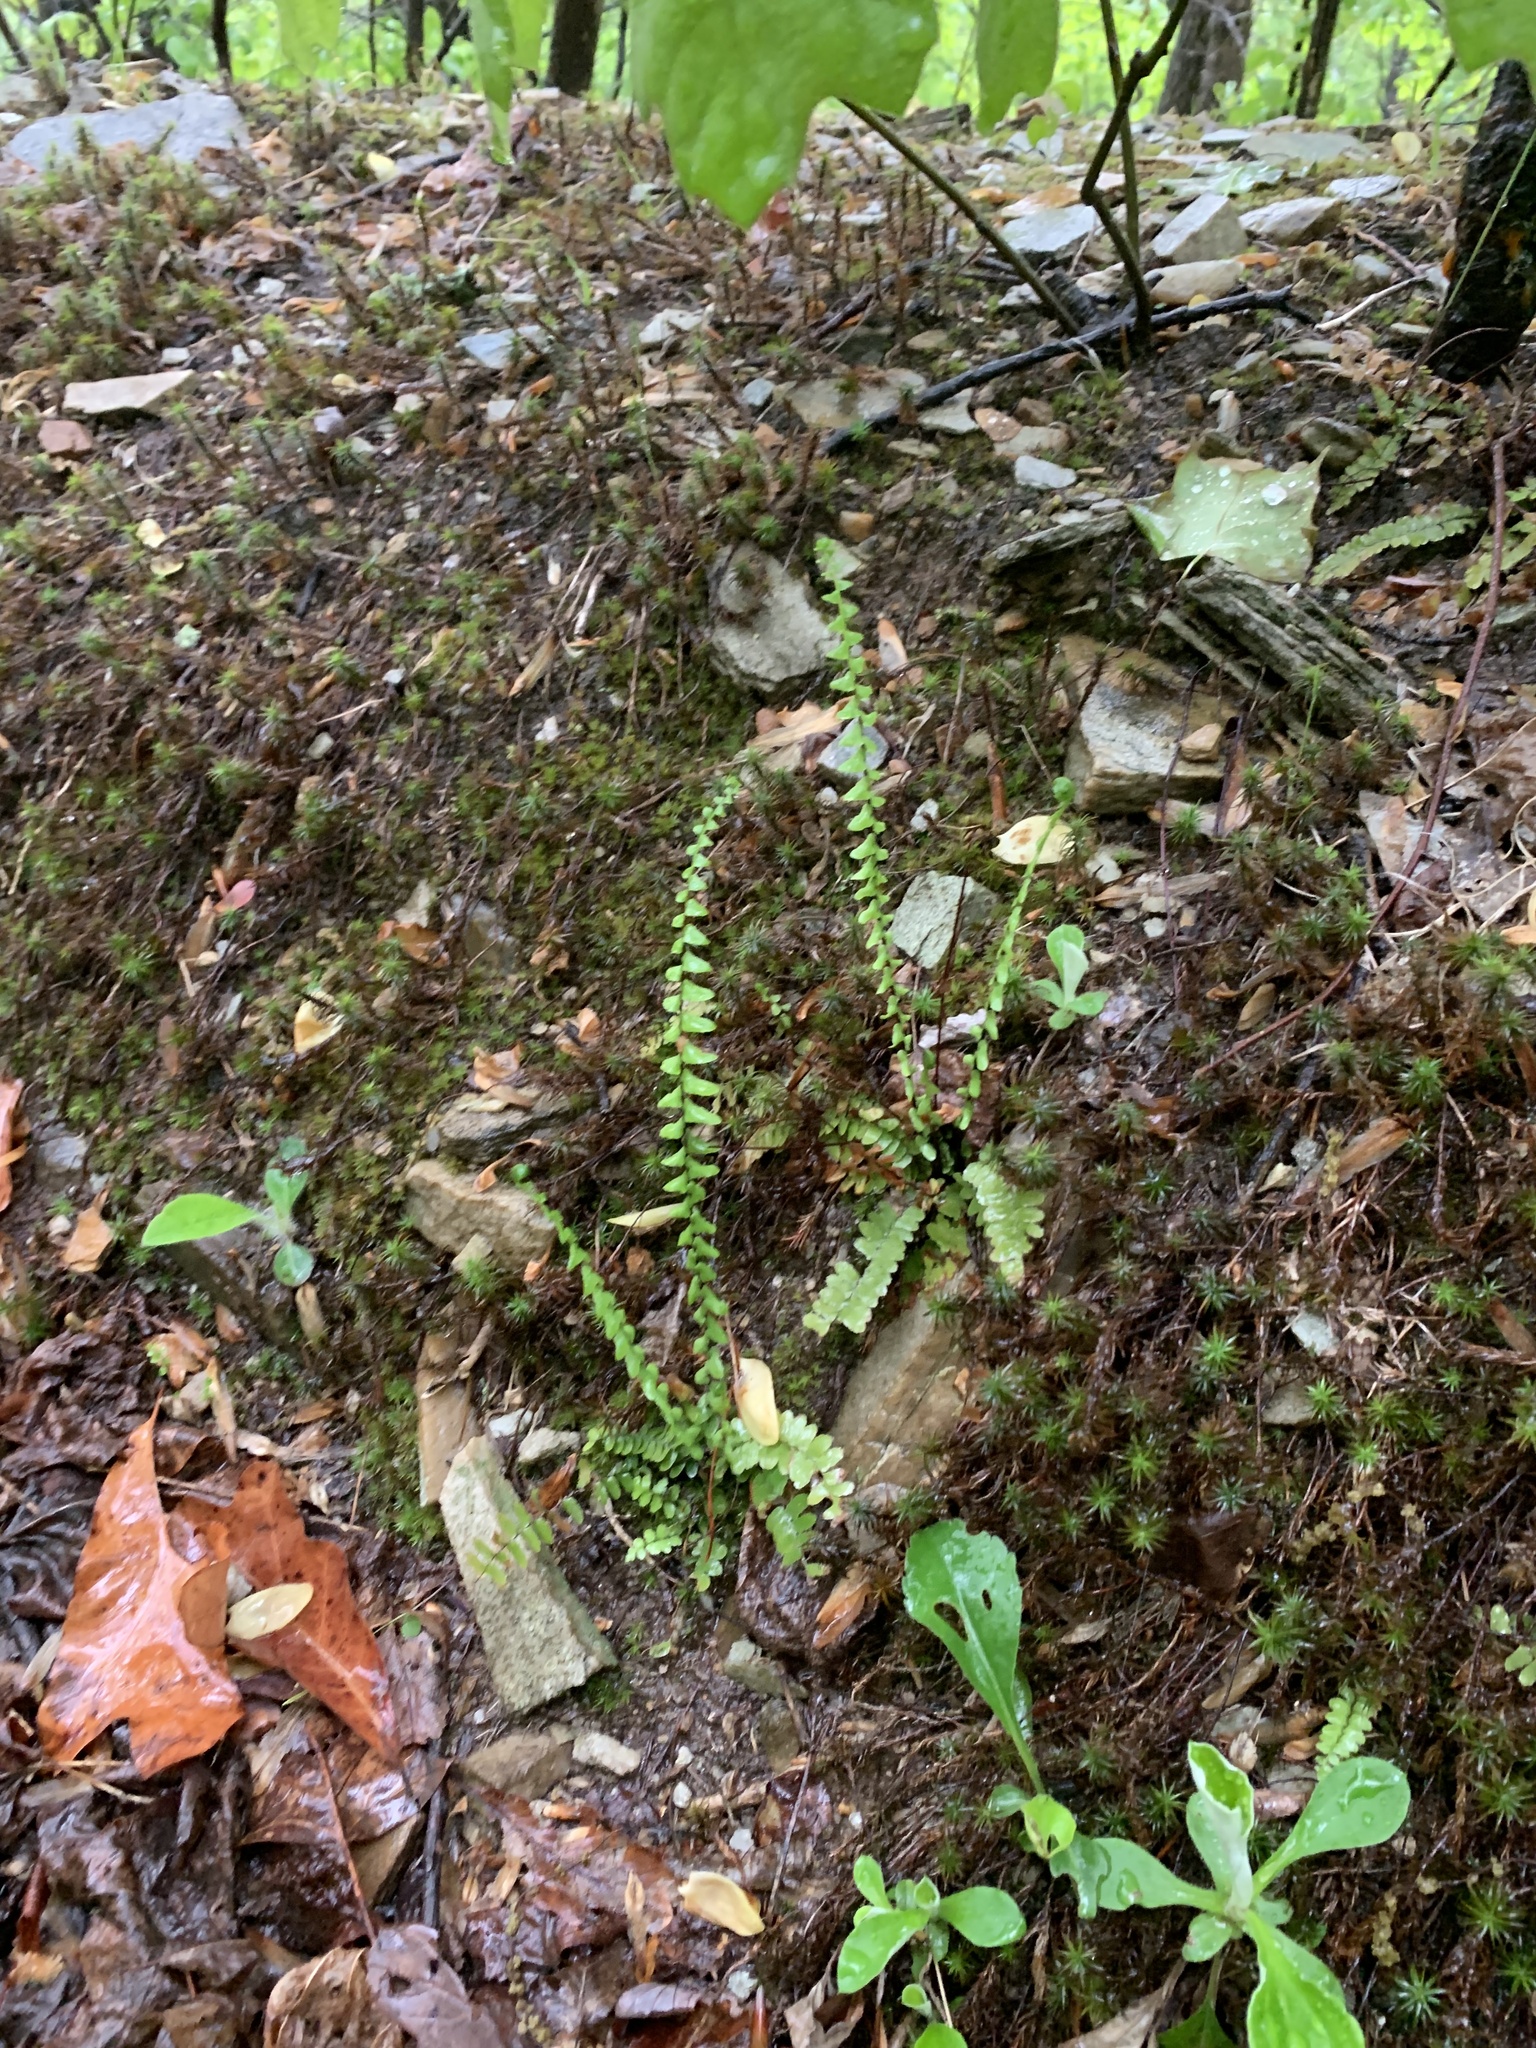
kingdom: Plantae
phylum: Tracheophyta
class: Polypodiopsida
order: Polypodiales
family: Aspleniaceae
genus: Asplenium
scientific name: Asplenium platyneuron
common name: Ebony spleenwort
